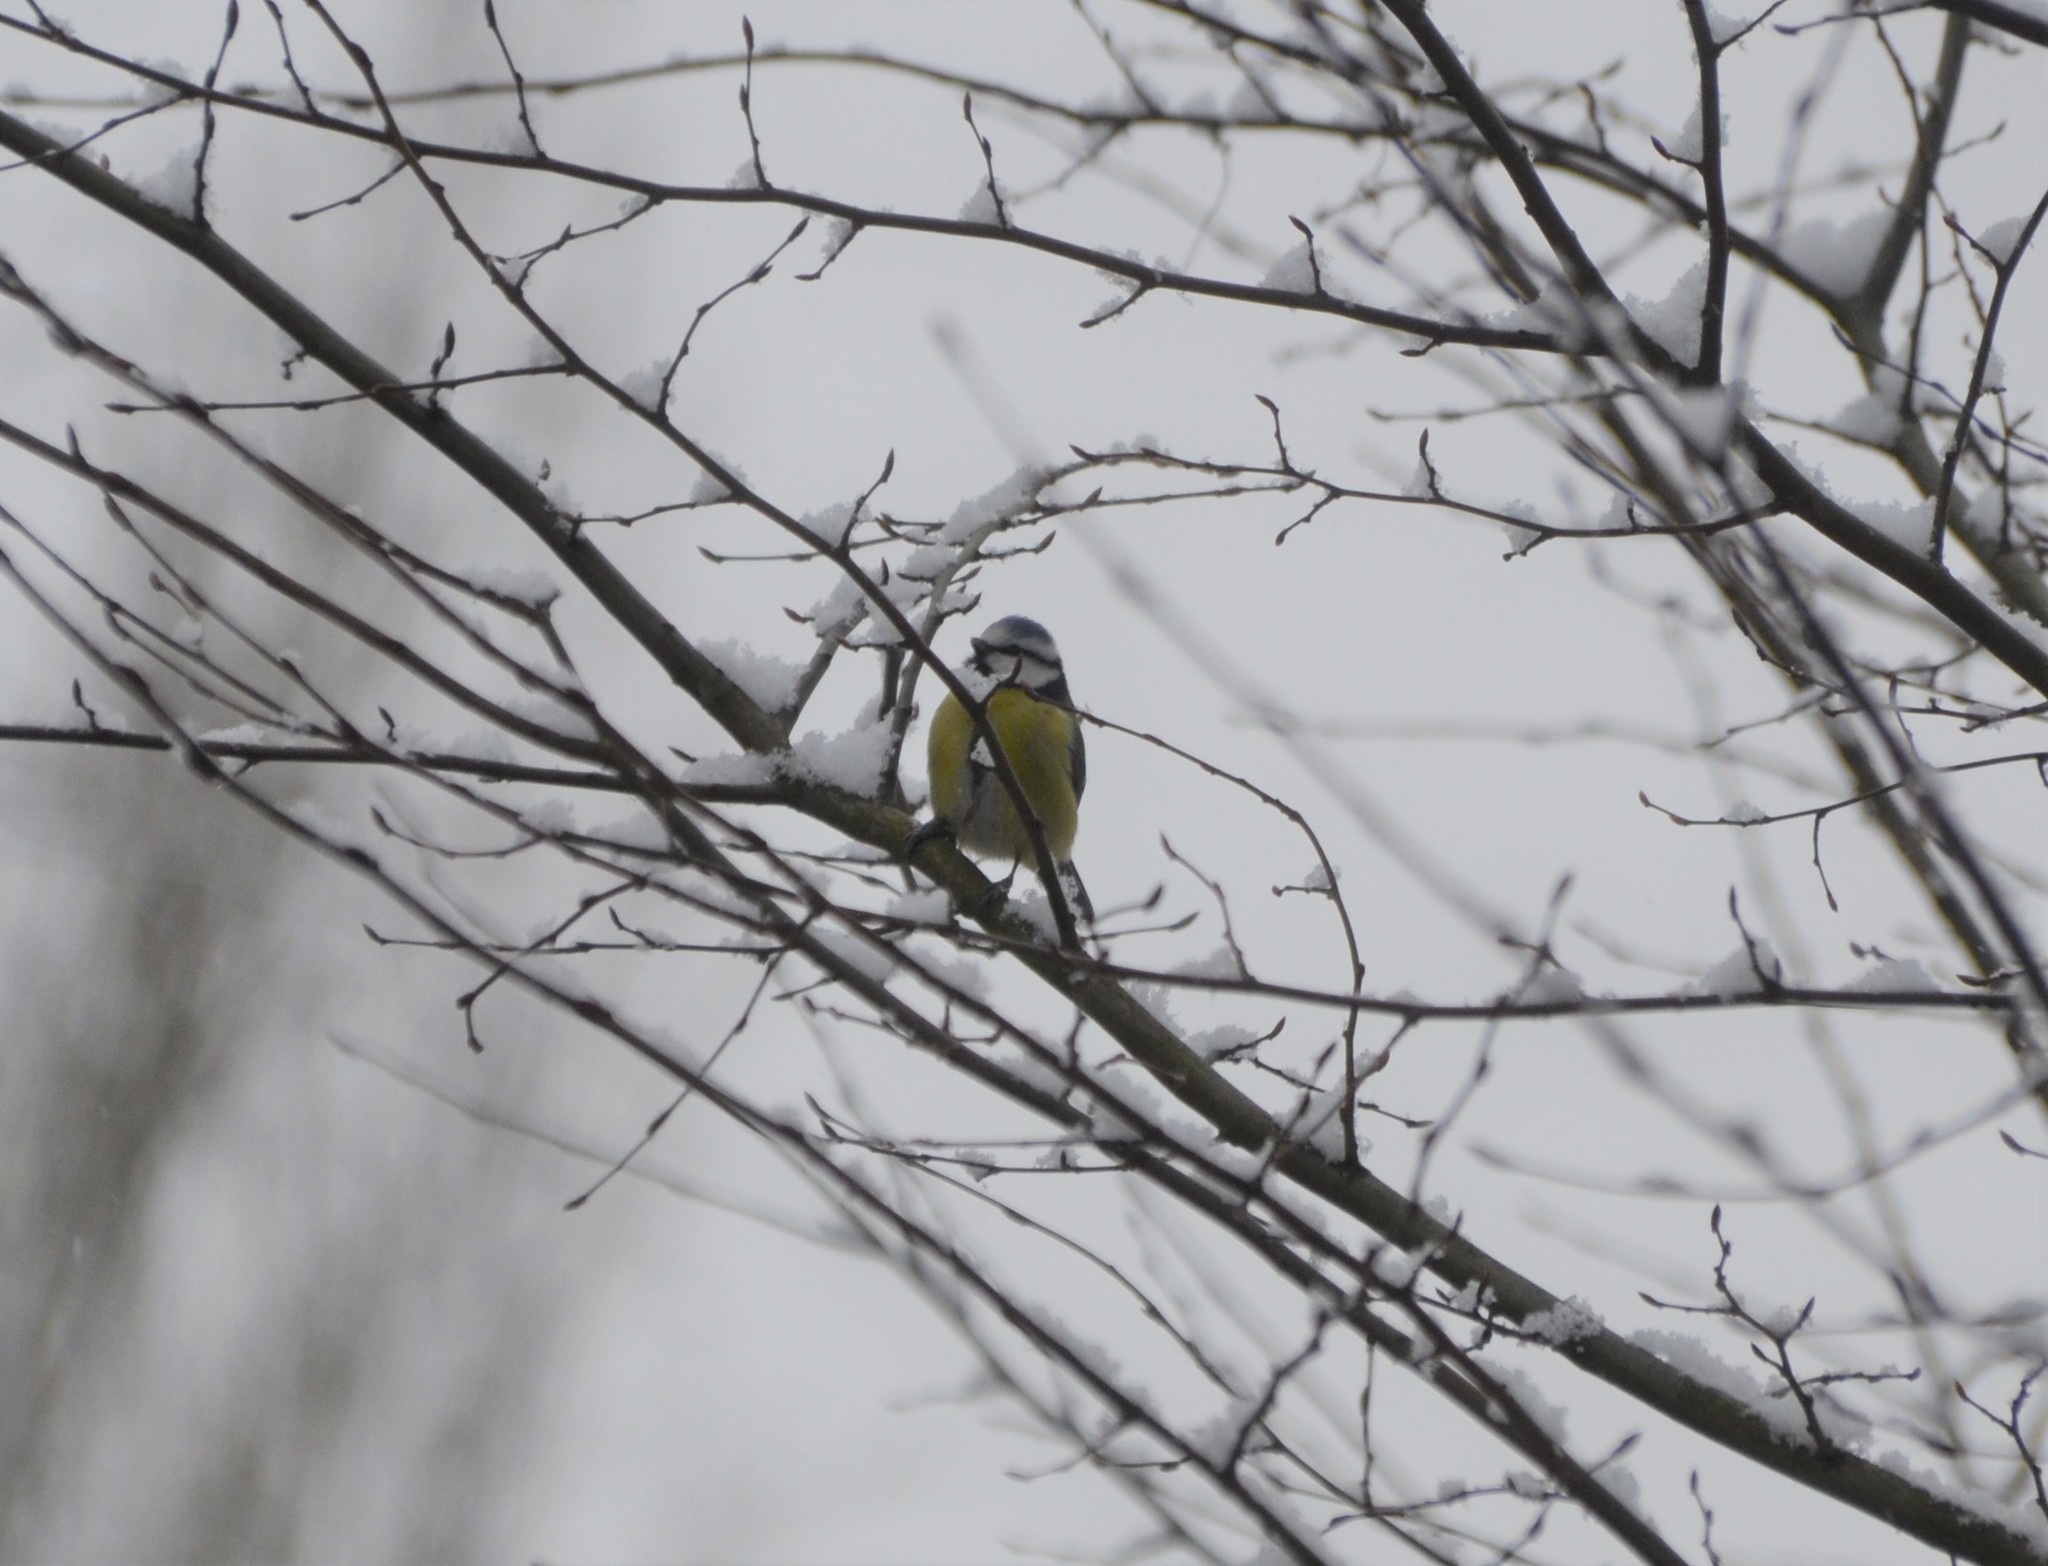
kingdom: Animalia
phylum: Chordata
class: Aves
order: Passeriformes
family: Paridae
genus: Cyanistes
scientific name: Cyanistes caeruleus
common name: Eurasian blue tit
